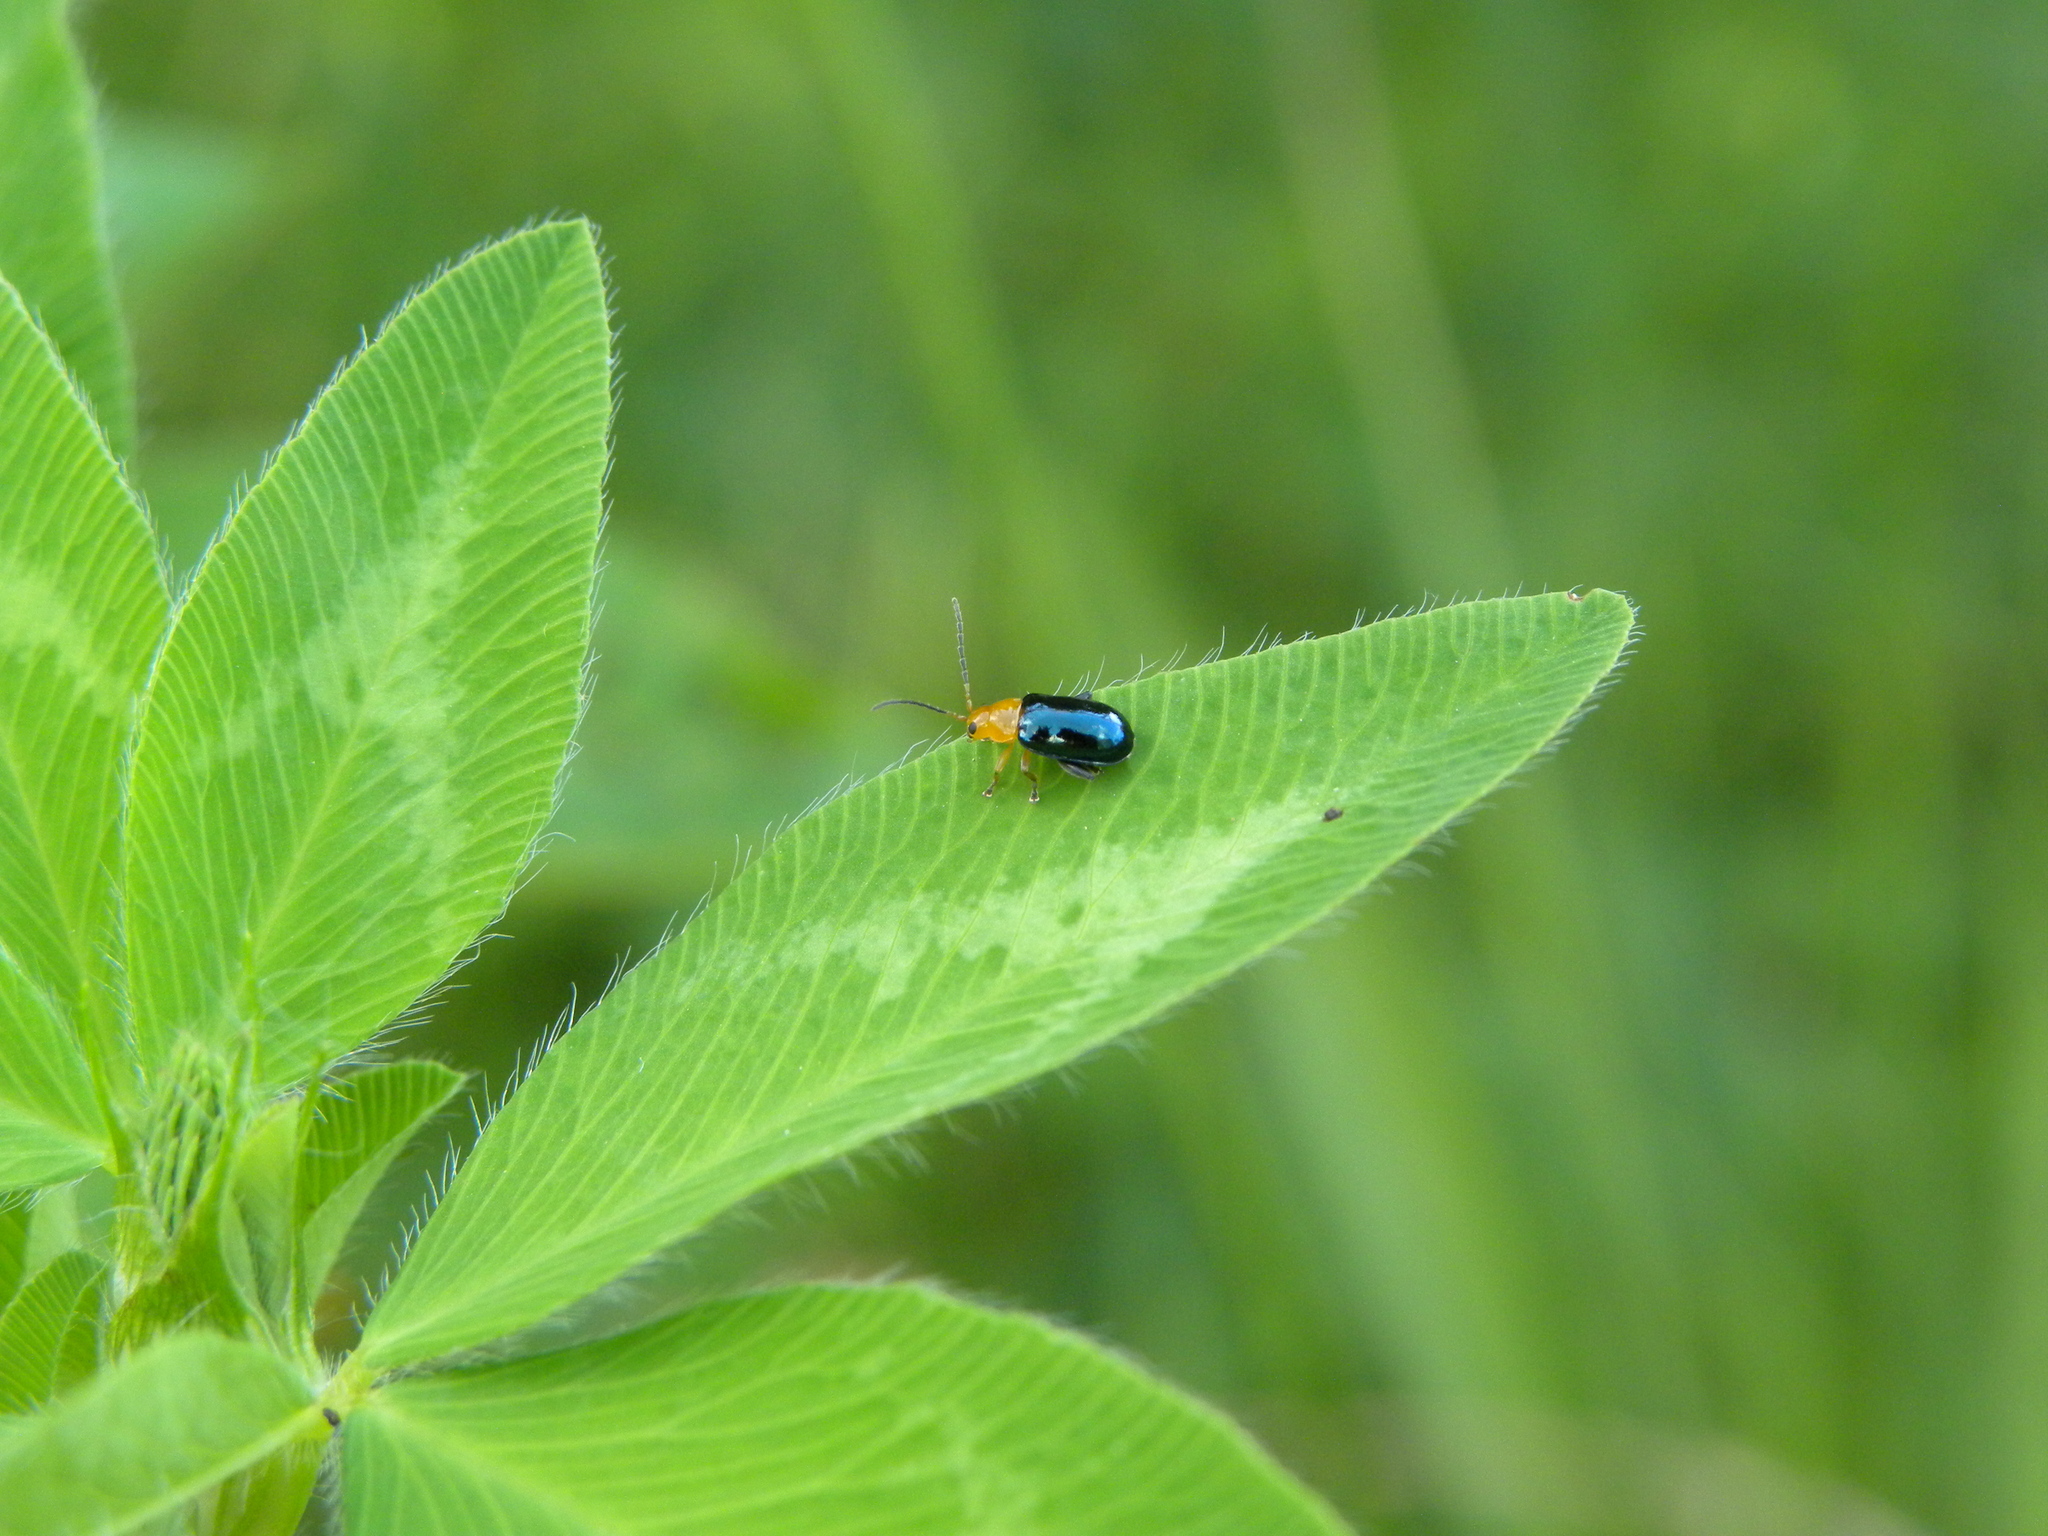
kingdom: Animalia
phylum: Arthropoda
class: Insecta
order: Coleoptera
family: Chrysomelidae
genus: Parchicola
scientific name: Parchicola iris
